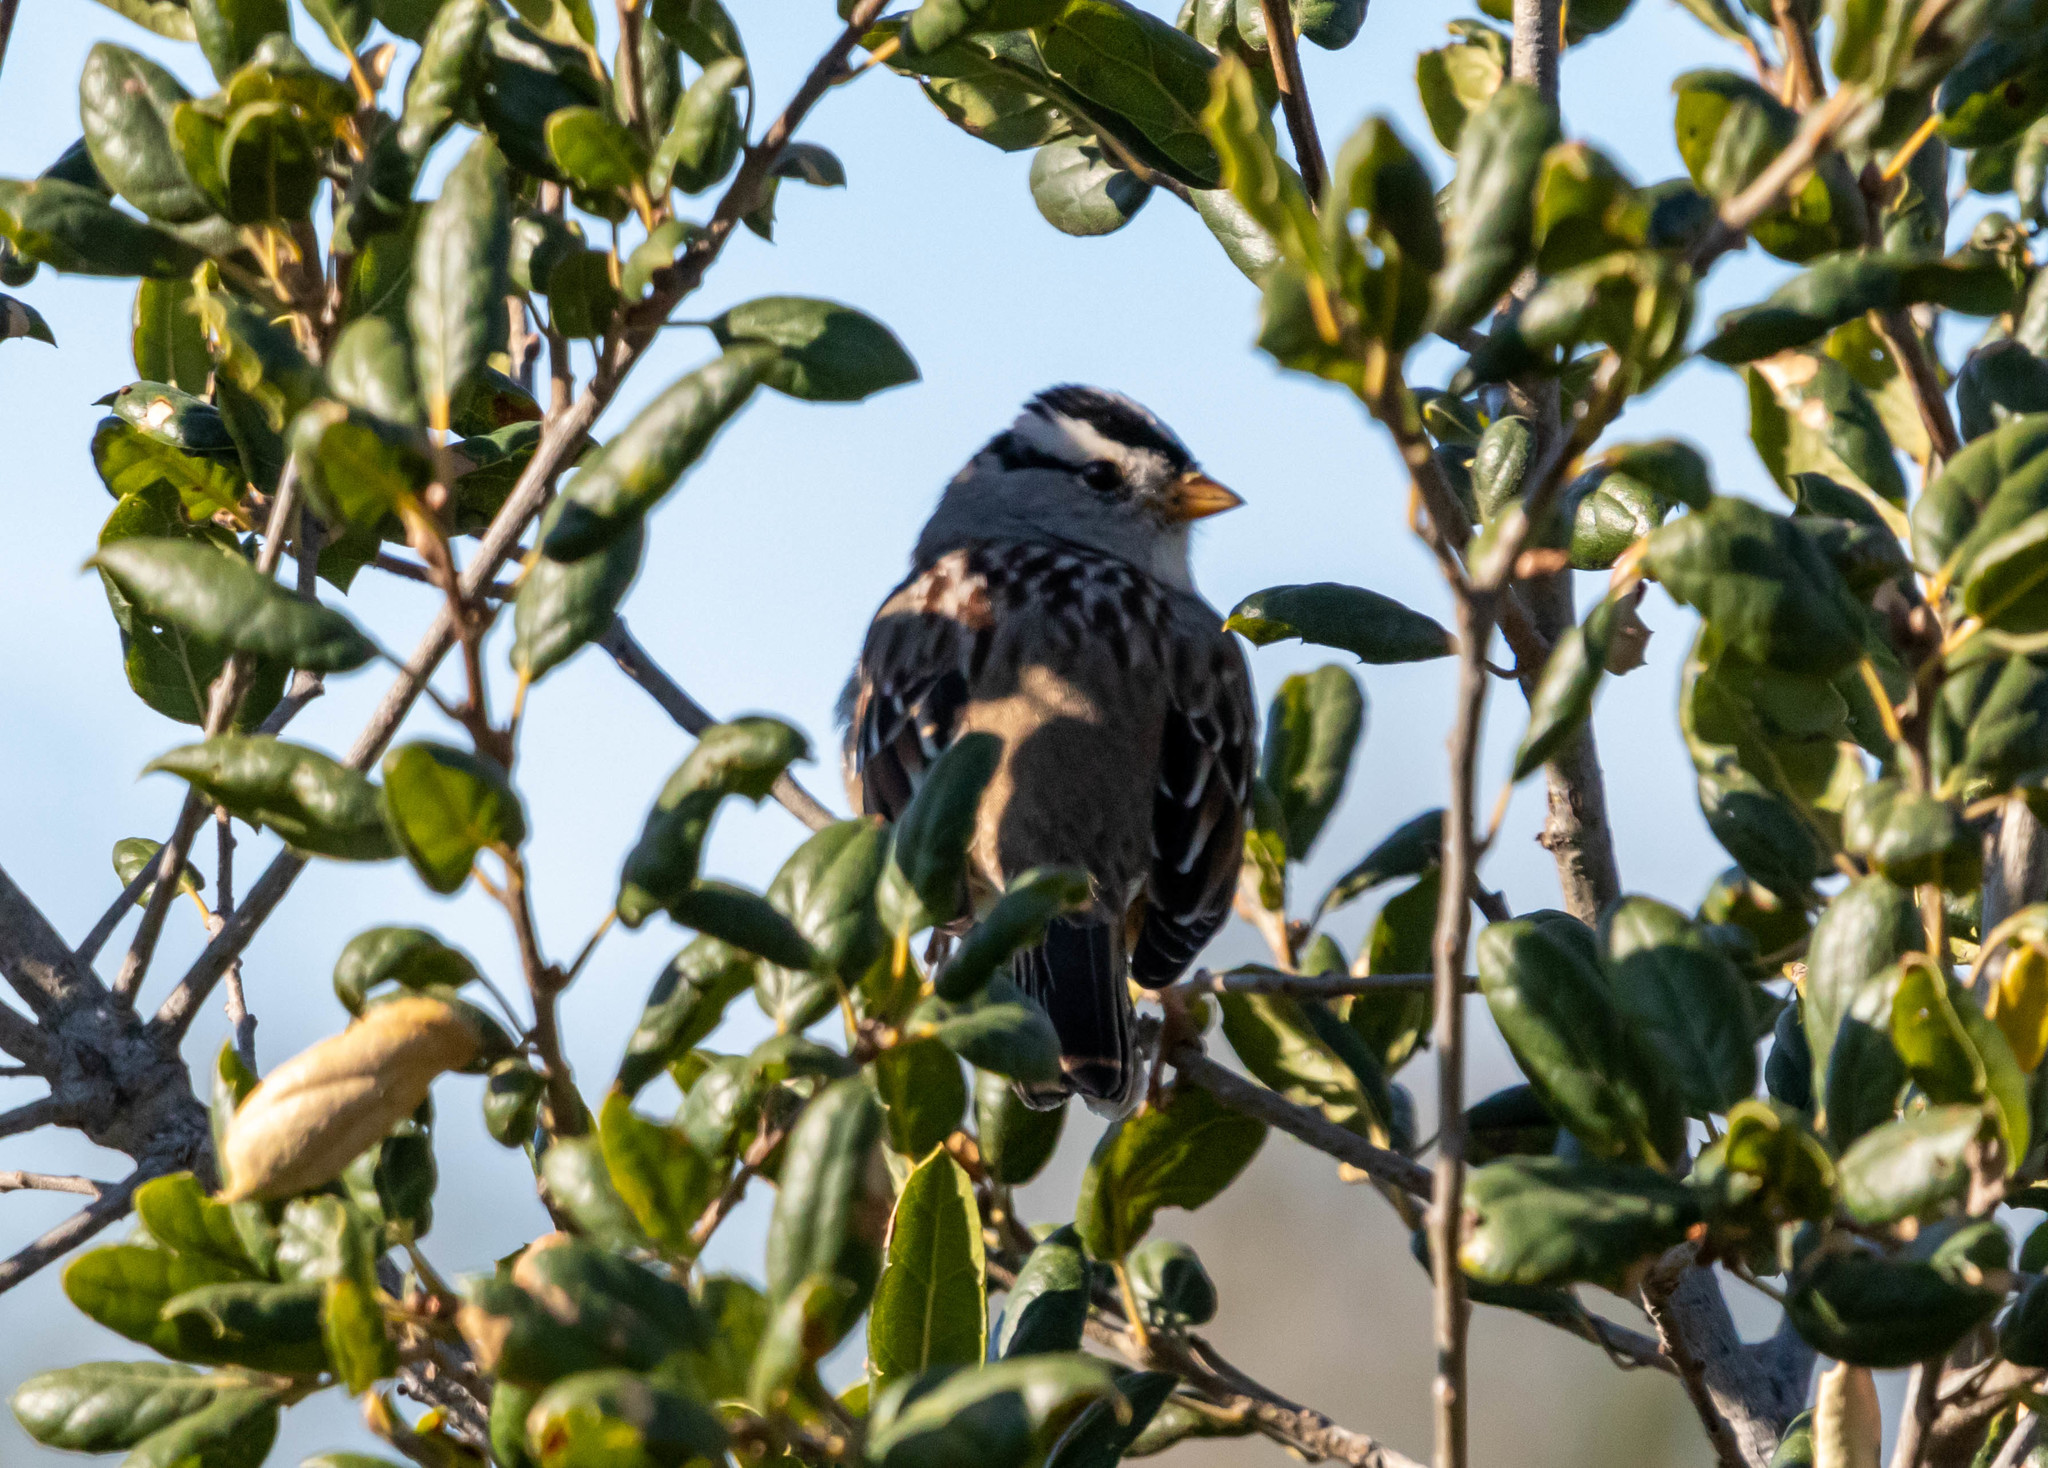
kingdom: Animalia
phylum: Chordata
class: Aves
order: Passeriformes
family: Passerellidae
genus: Zonotrichia
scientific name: Zonotrichia leucophrys
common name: White-crowned sparrow
